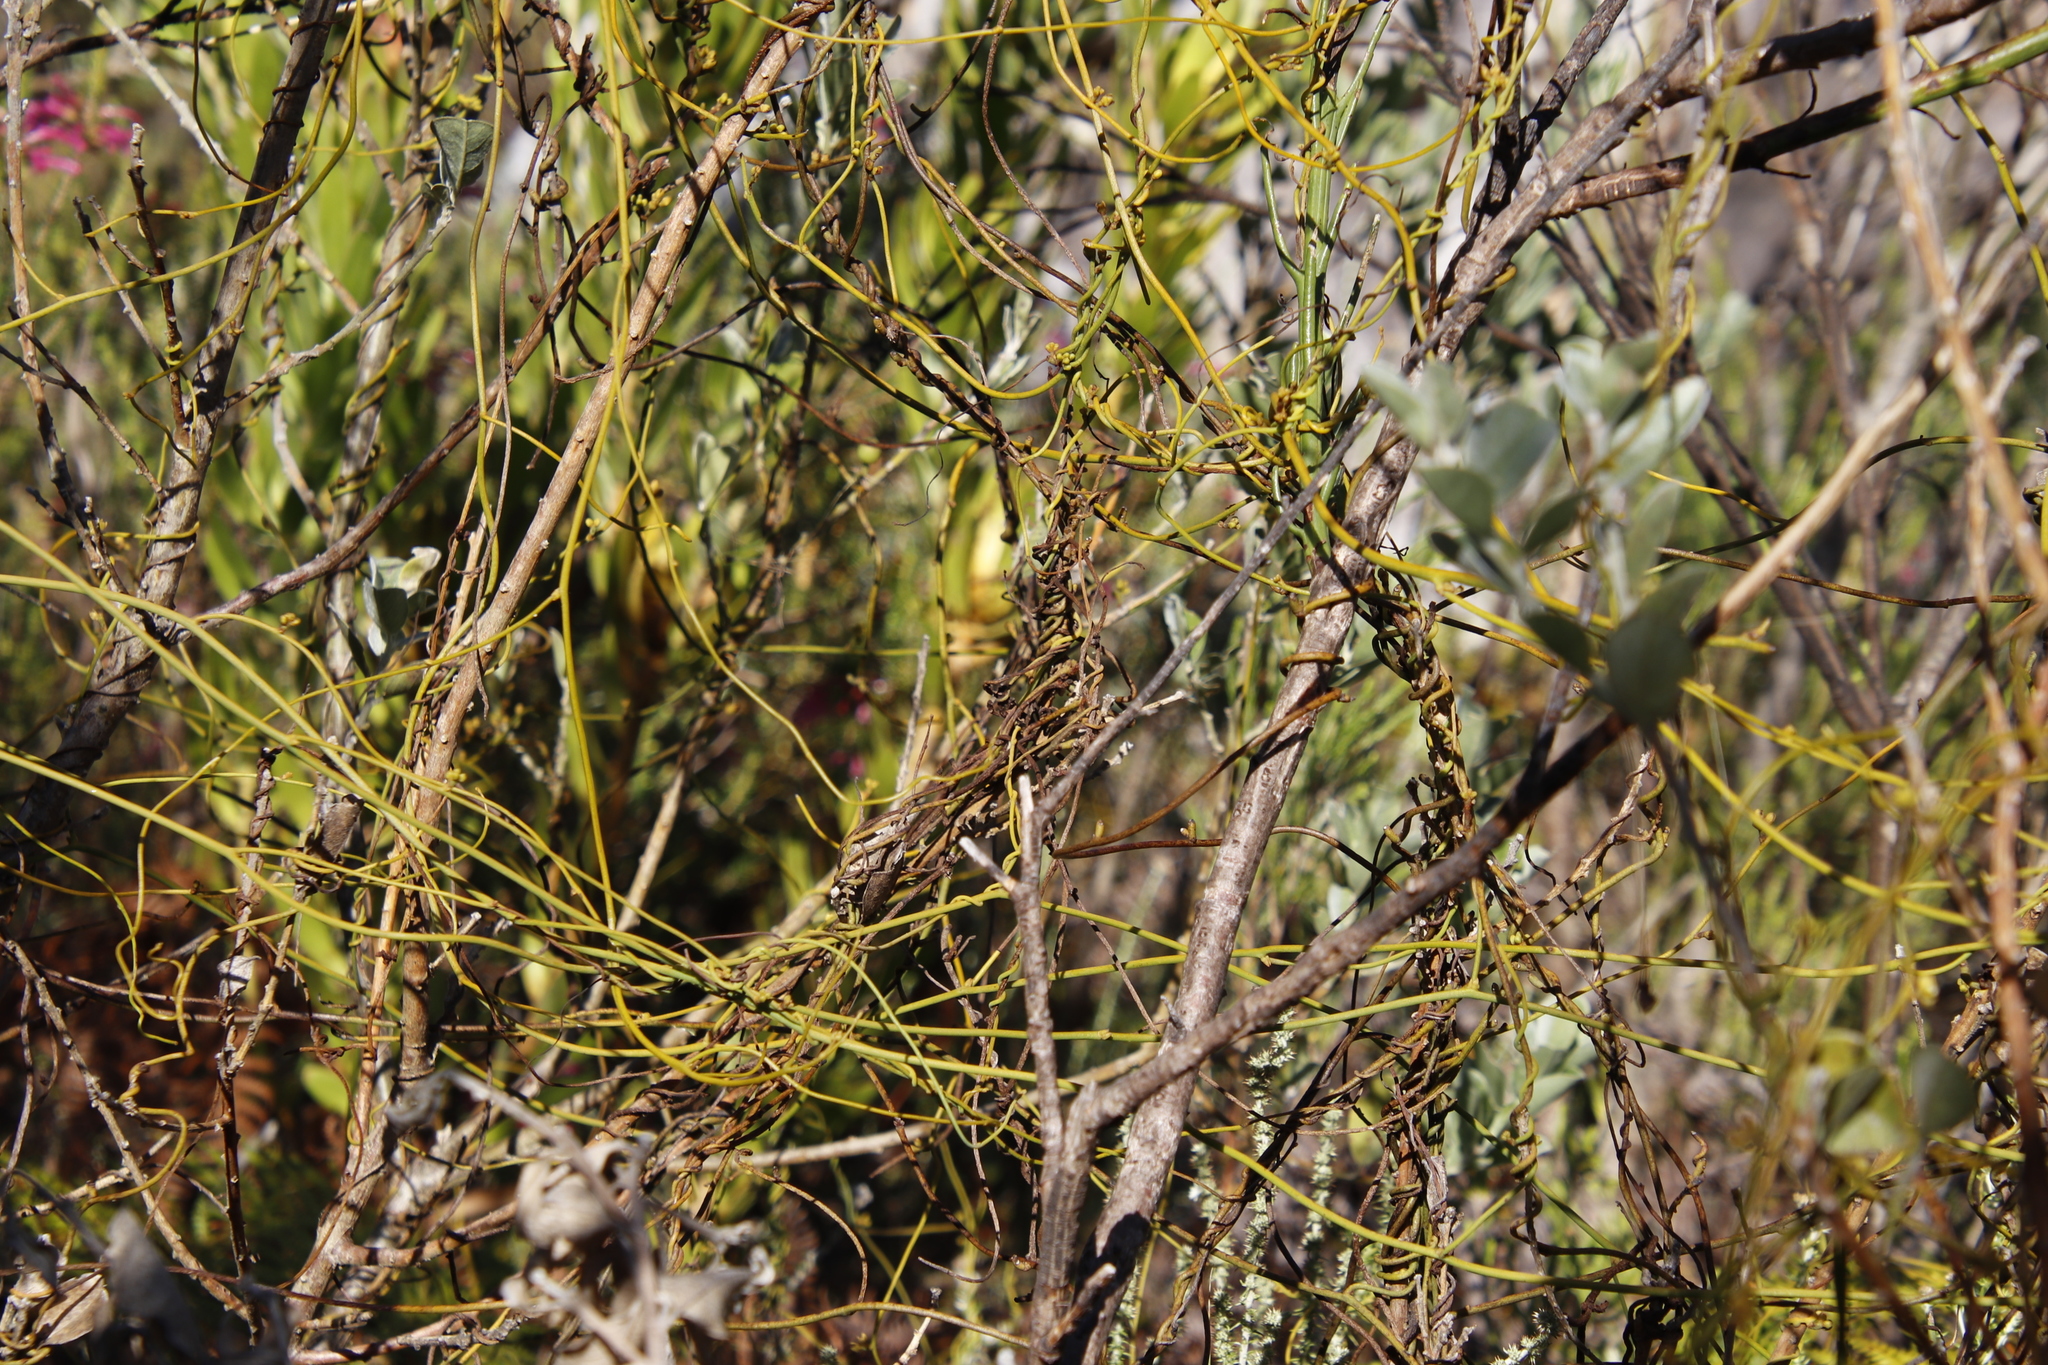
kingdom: Plantae
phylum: Tracheophyta
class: Magnoliopsida
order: Laurales
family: Lauraceae
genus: Cassytha
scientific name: Cassytha ciliolata
